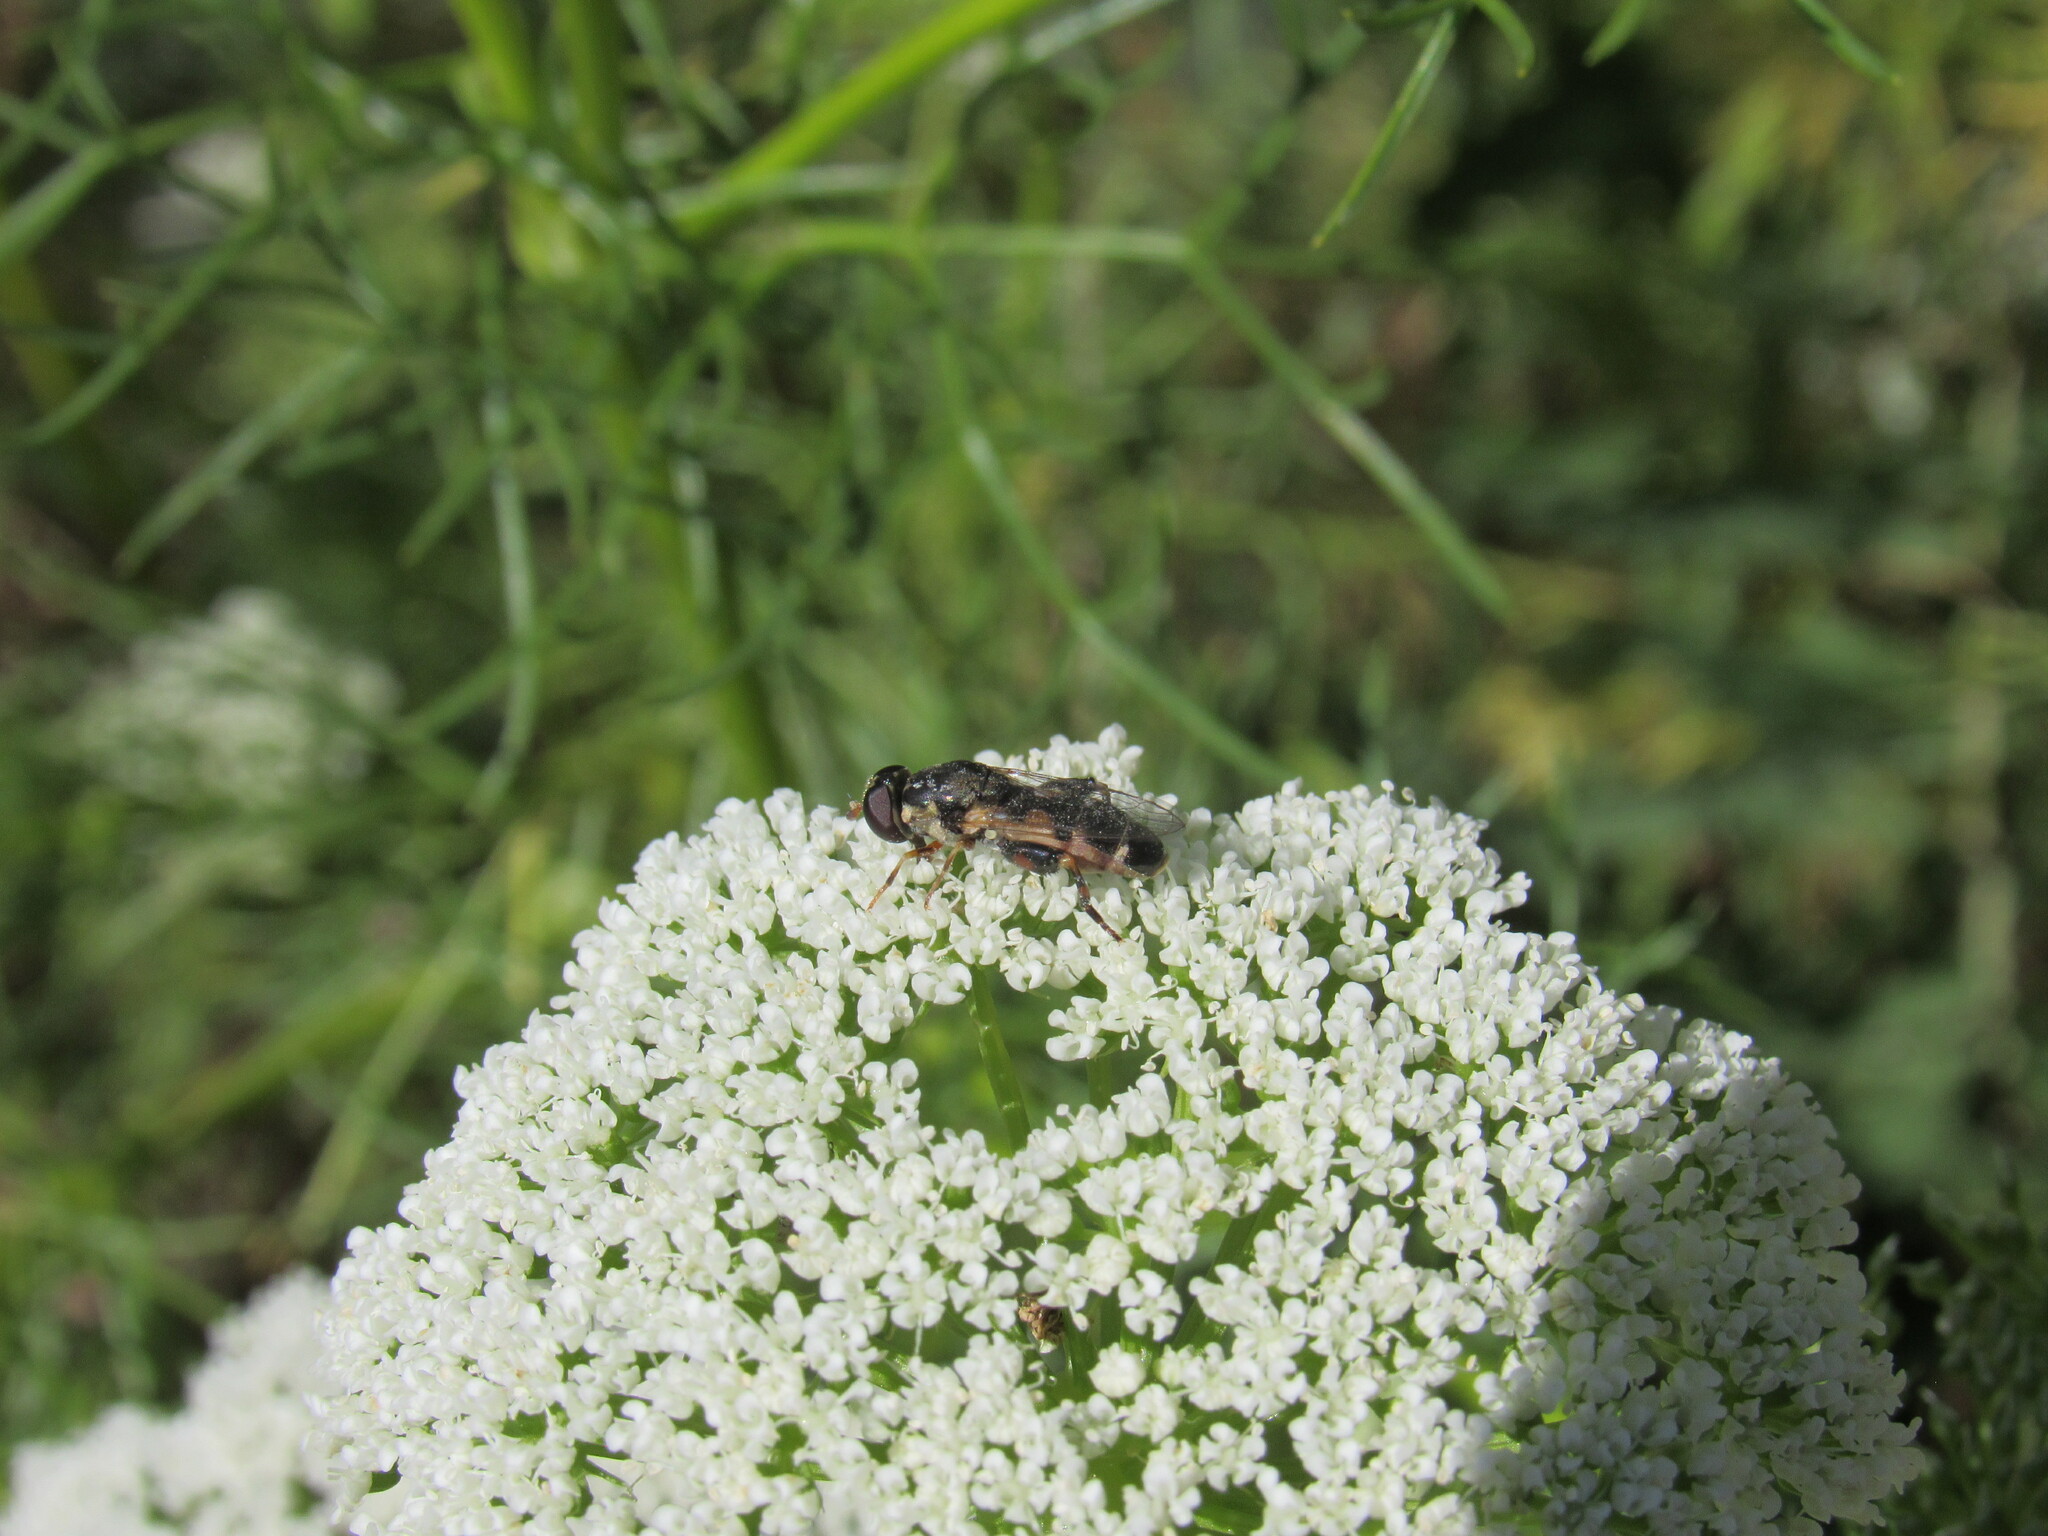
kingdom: Animalia
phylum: Arthropoda
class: Insecta
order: Diptera
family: Syrphidae
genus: Syritta
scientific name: Syritta pipiens
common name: Hover fly
